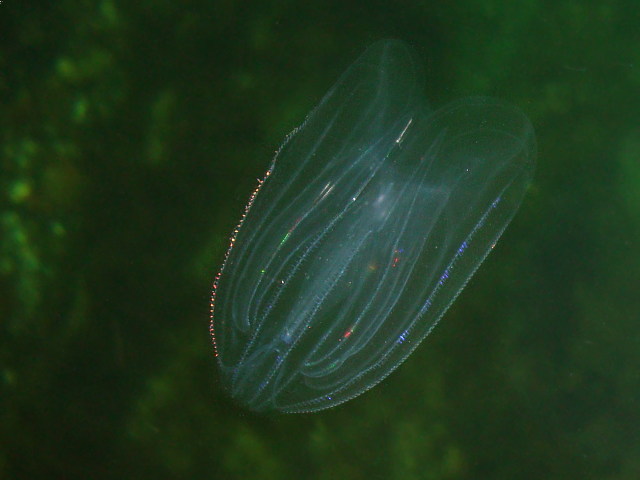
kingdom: Animalia
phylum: Ctenophora
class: Tentaculata
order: Lobata
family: Bolinopsidae
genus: Mnemiopsis
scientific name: Mnemiopsis leidyi
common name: American comb jelly
